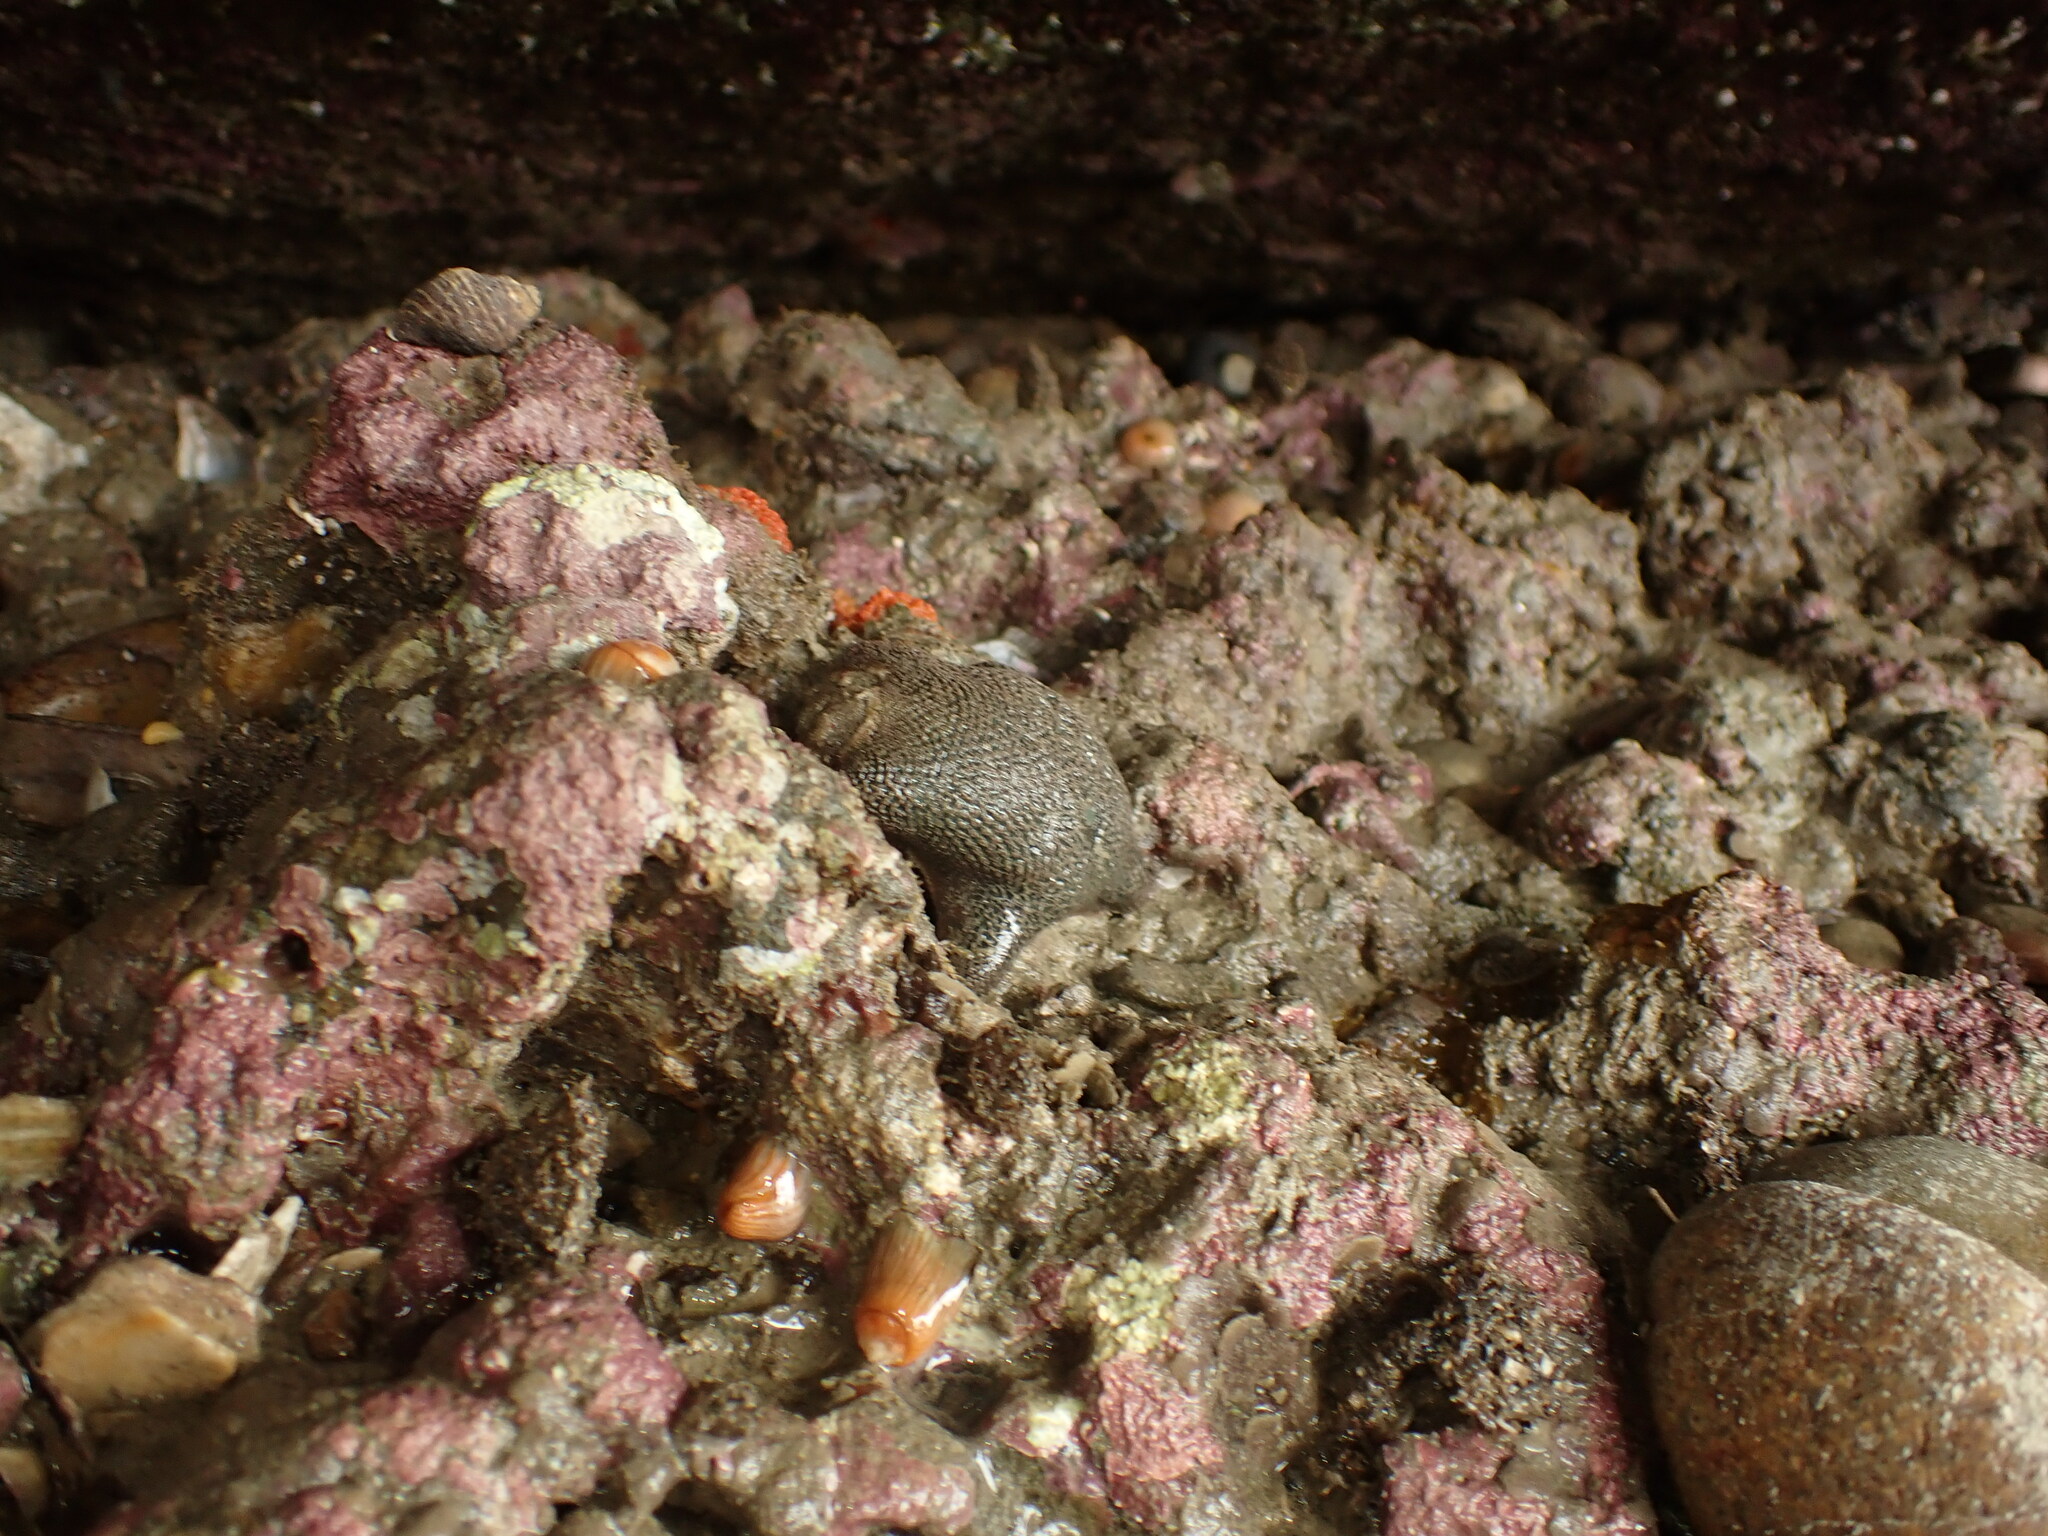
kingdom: Animalia
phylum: Echinodermata
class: Asteroidea
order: Valvatida
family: Asterinidae
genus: Patiriella
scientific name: Patiriella regularis
